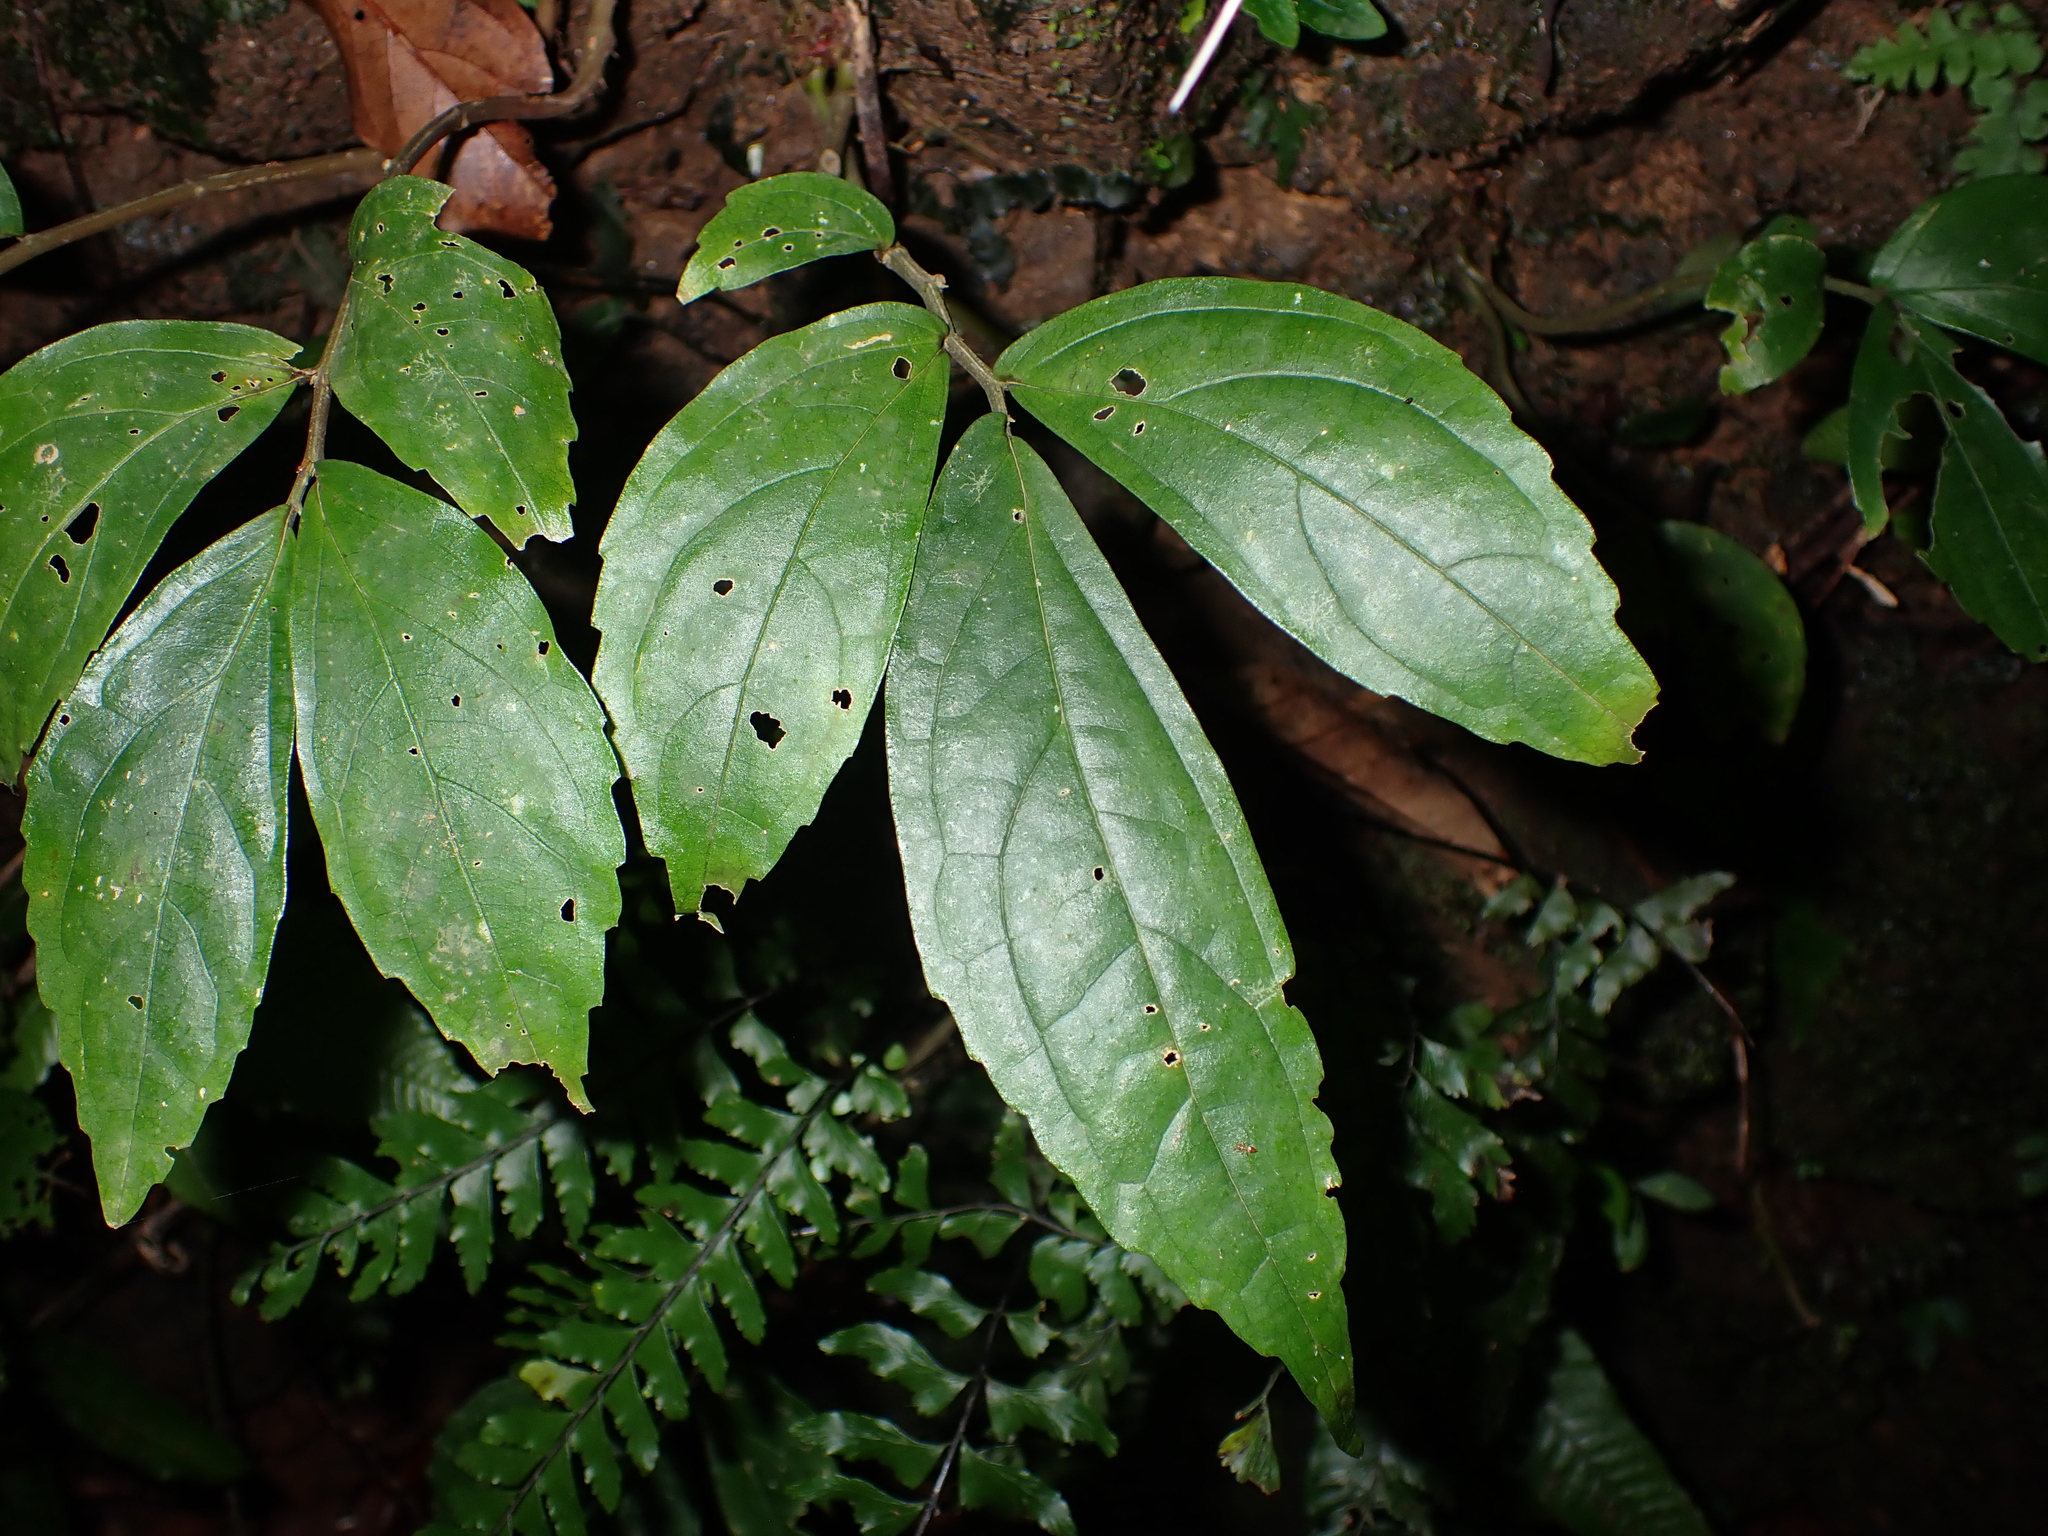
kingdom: Plantae
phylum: Tracheophyta
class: Magnoliopsida
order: Rosales
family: Urticaceae
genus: Elatostema
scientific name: Elatostema hirtellipedunculatum
